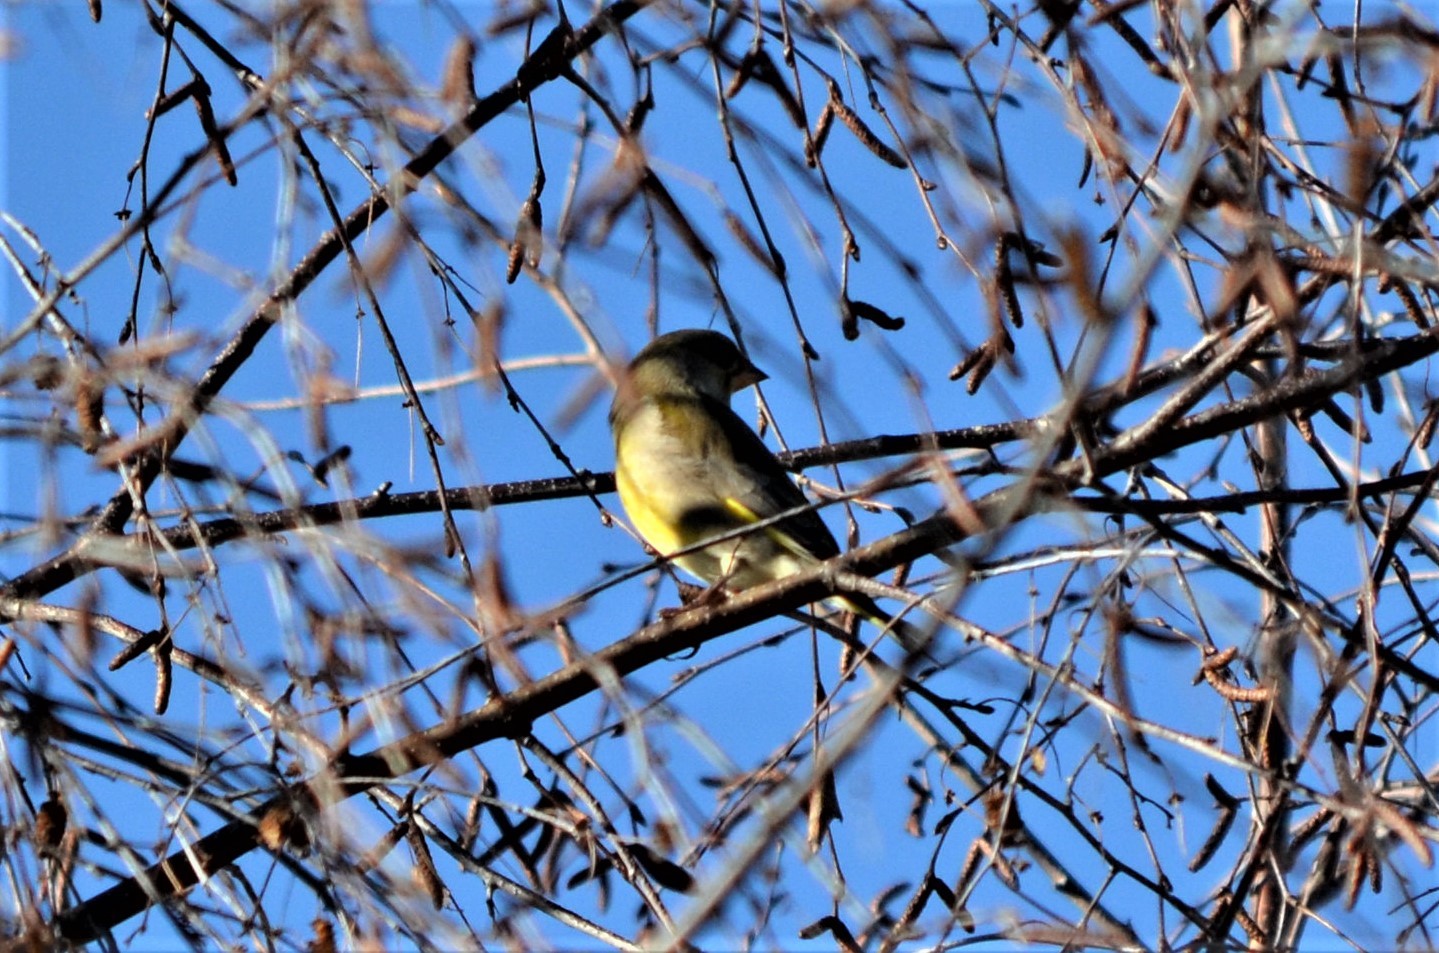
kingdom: Plantae
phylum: Tracheophyta
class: Liliopsida
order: Poales
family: Poaceae
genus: Chloris
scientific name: Chloris chloris
